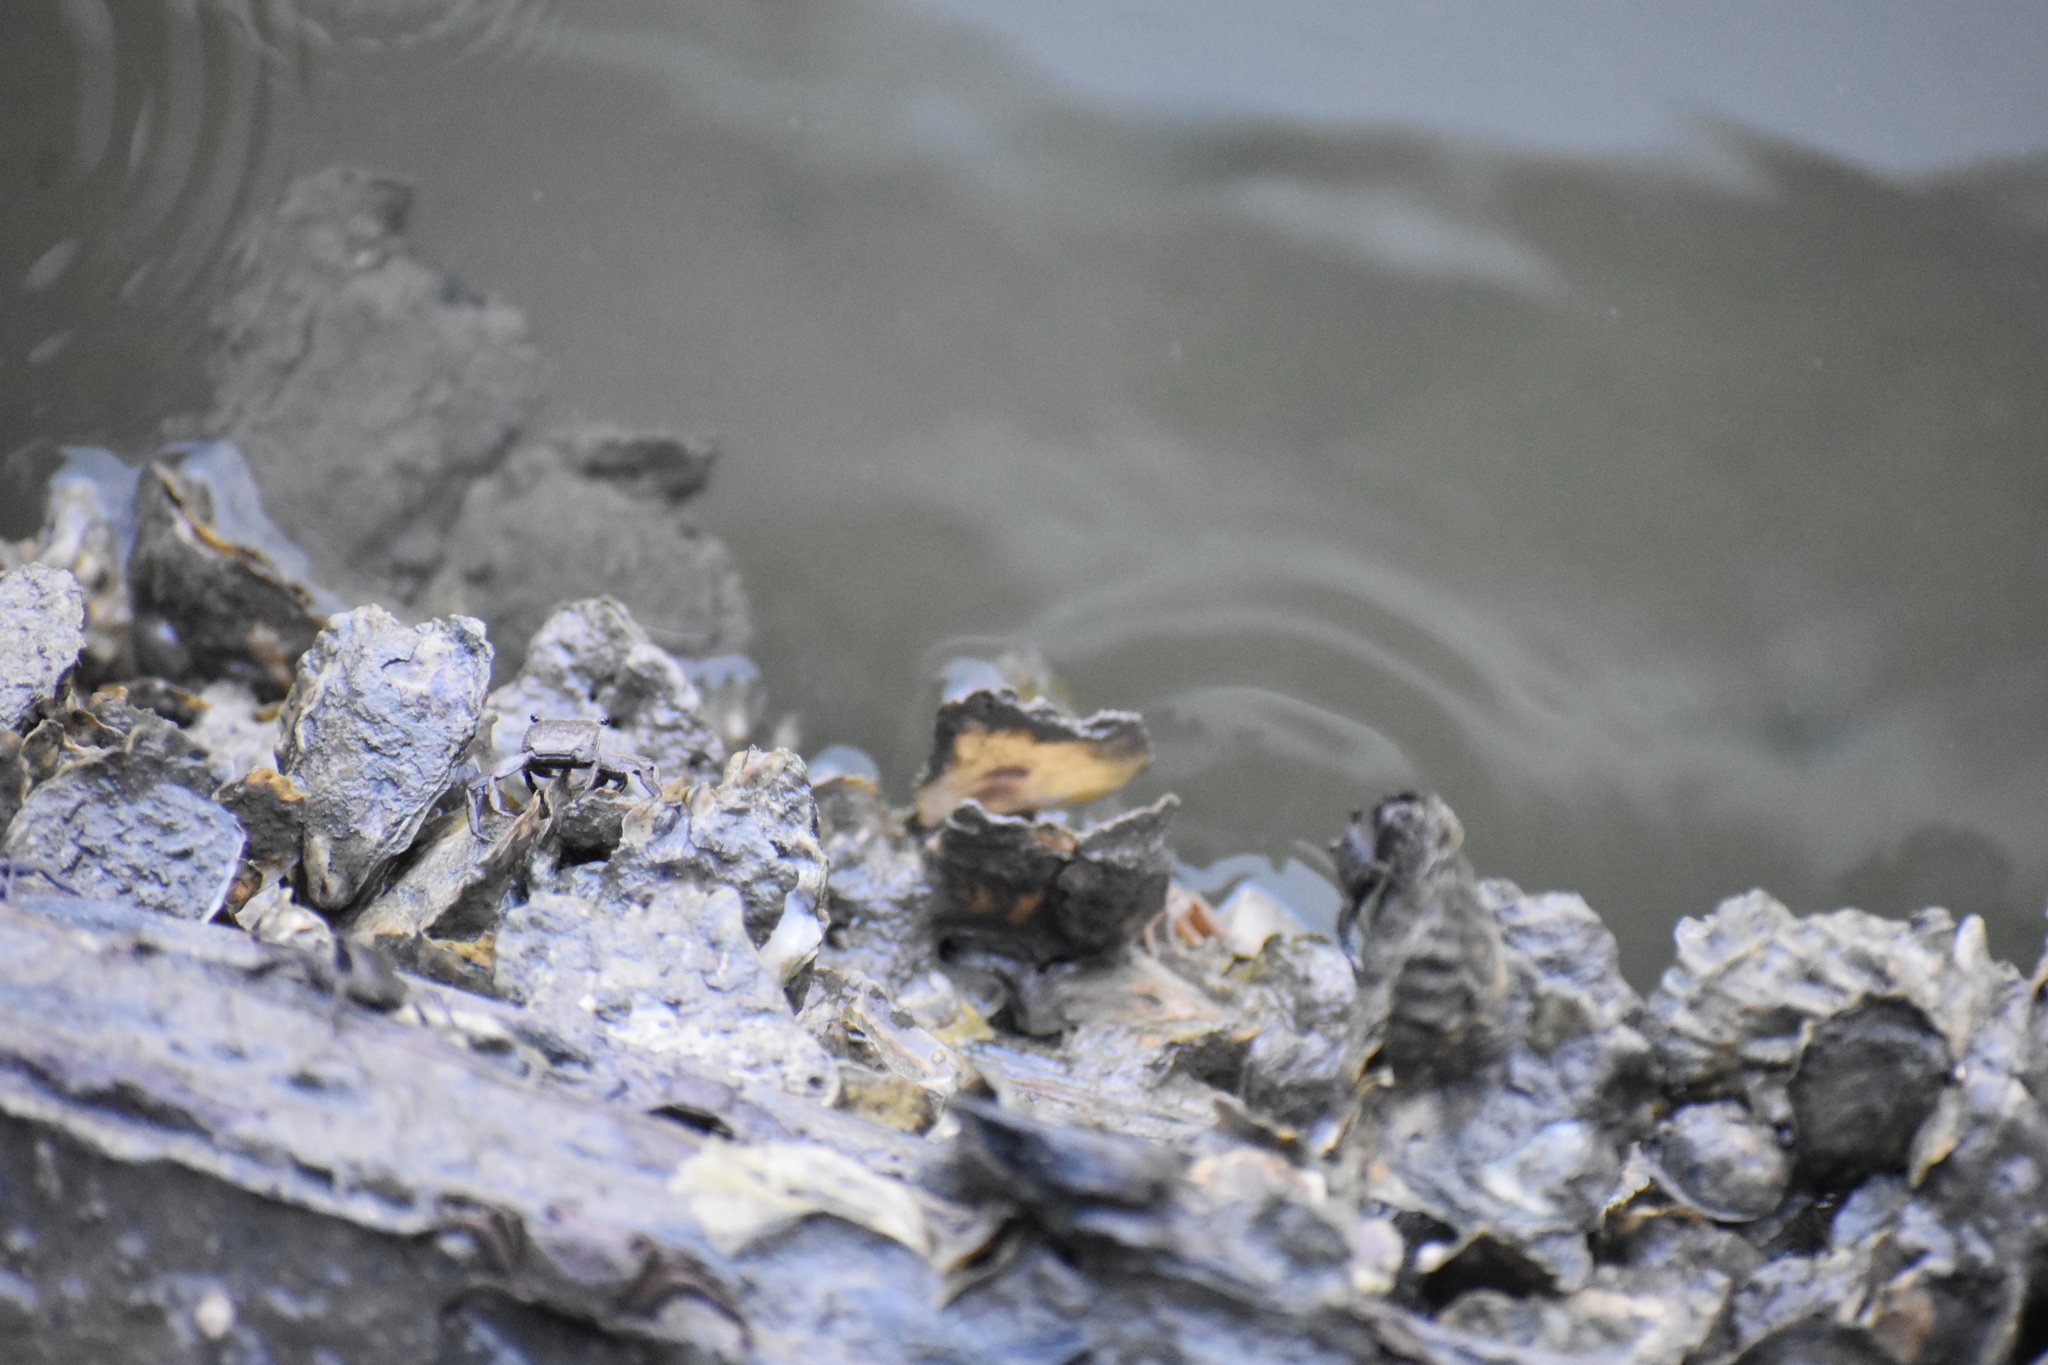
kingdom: Animalia
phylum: Arthropoda
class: Malacostraca
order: Decapoda
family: Sesarmidae
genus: Armases
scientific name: Armases cinereum
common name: Squareback marsh crab
